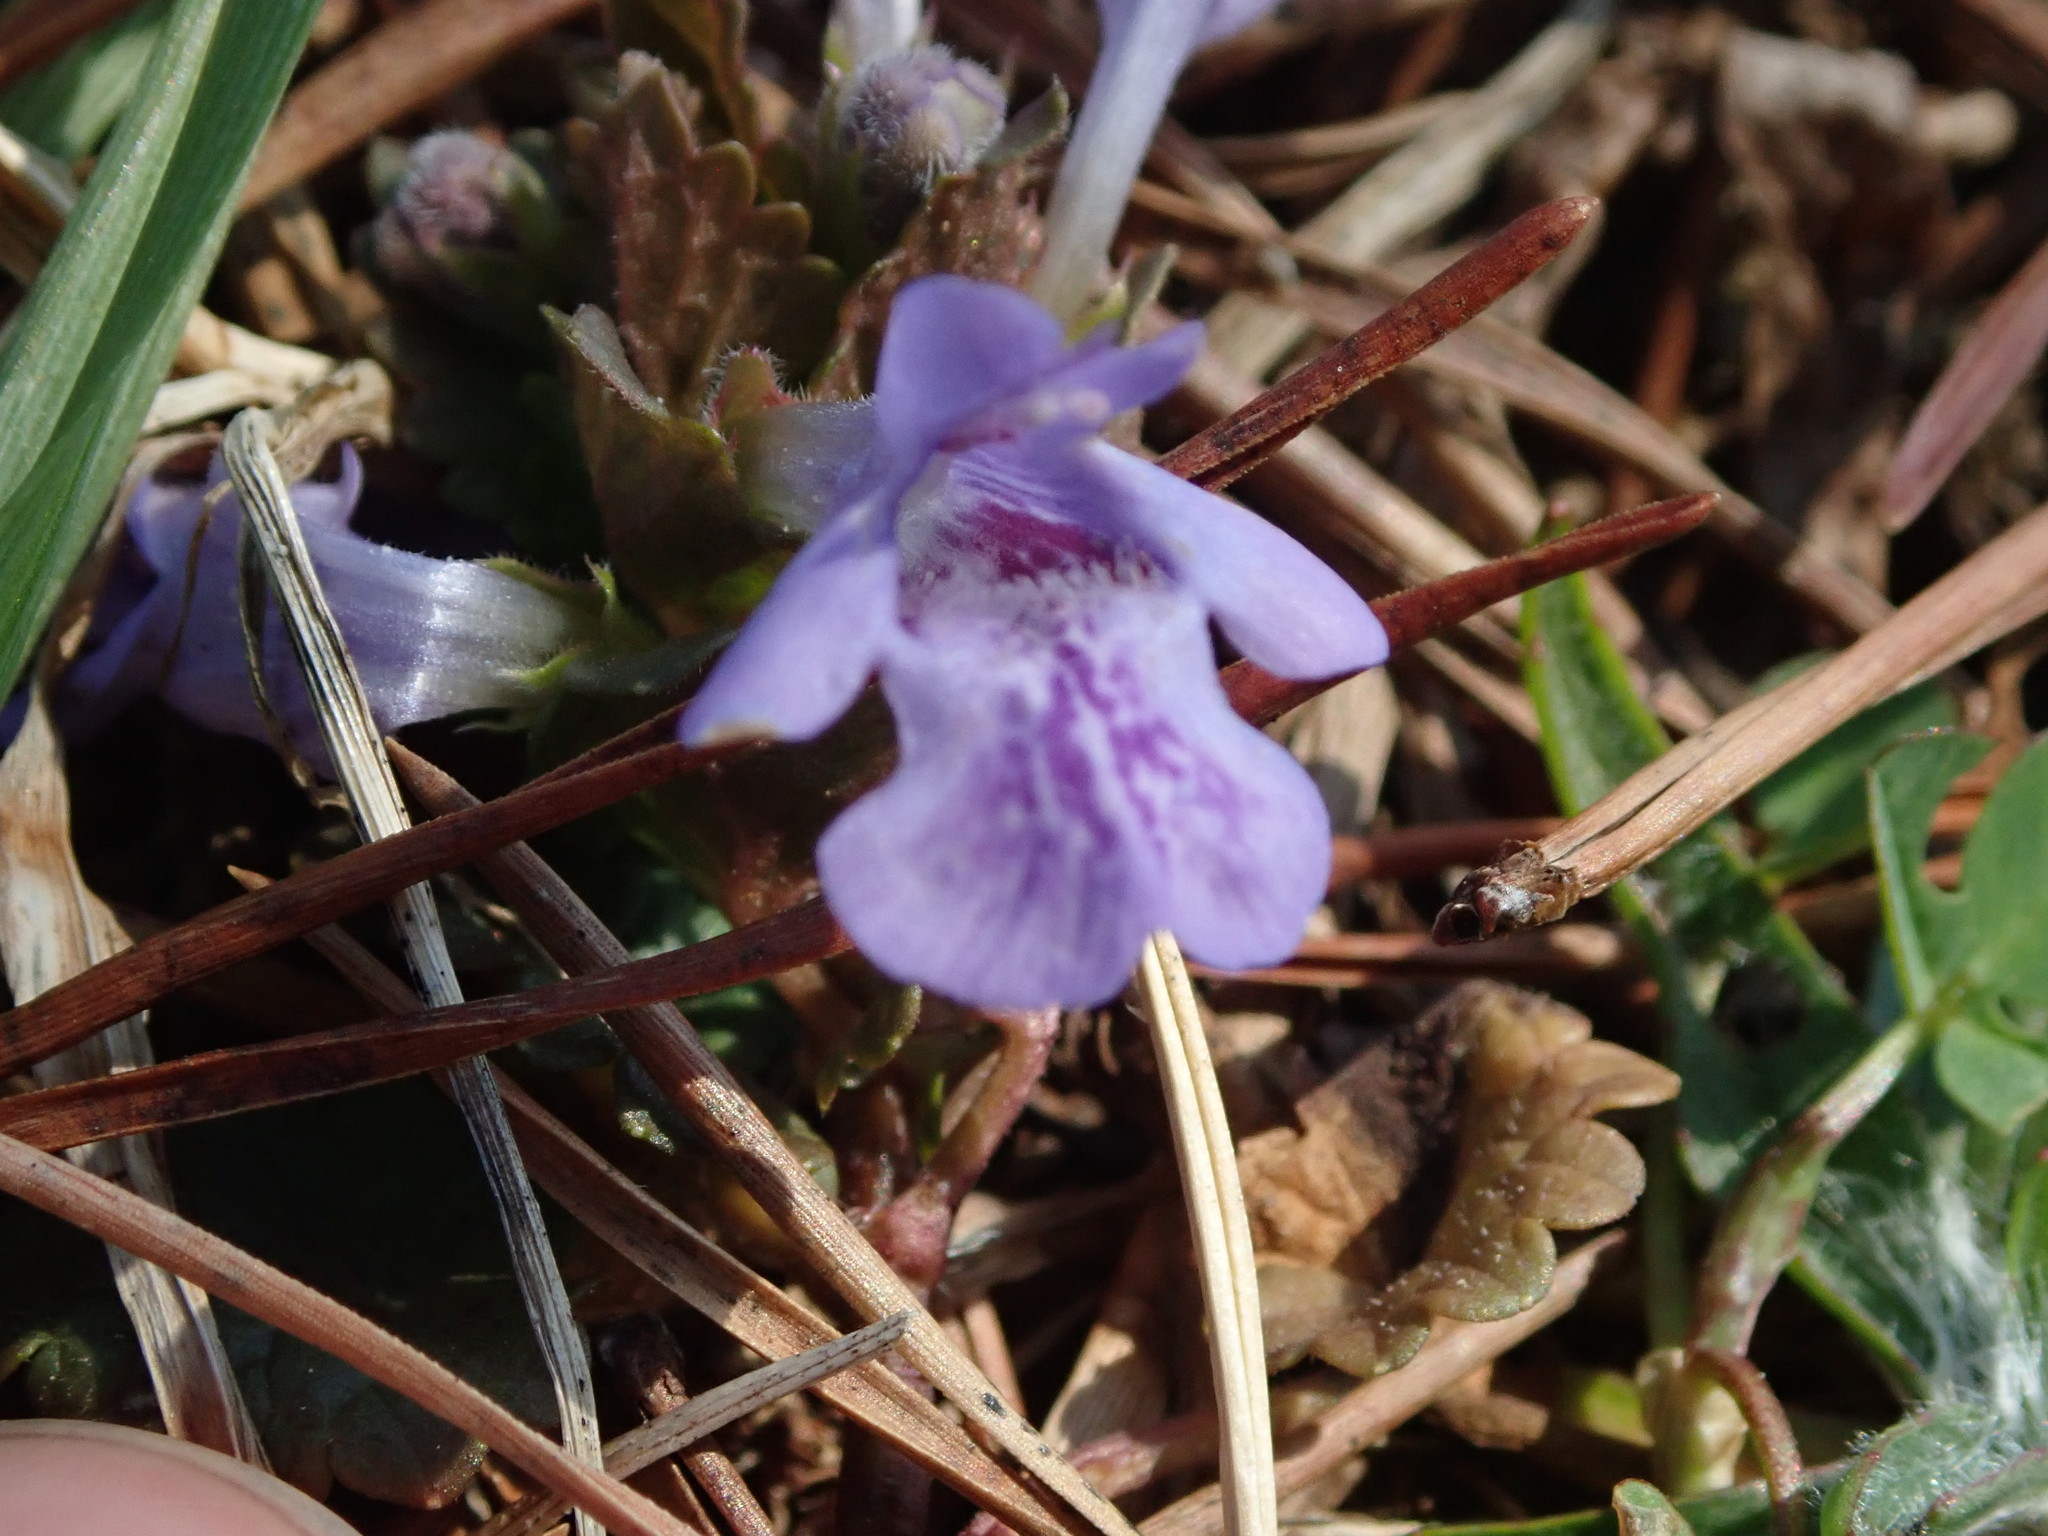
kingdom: Plantae
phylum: Tracheophyta
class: Magnoliopsida
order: Lamiales
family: Lamiaceae
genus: Glechoma
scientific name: Glechoma hederacea
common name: Ground ivy
